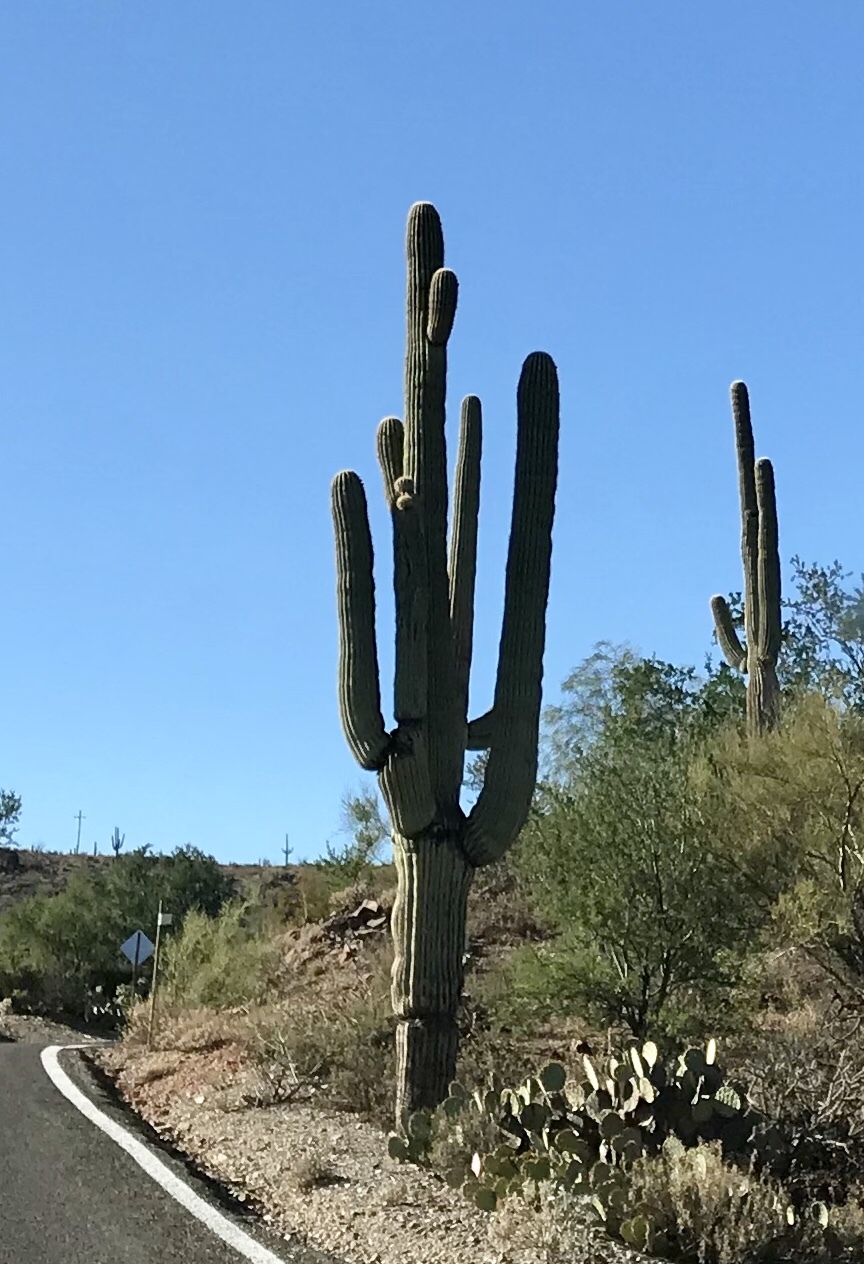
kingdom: Plantae
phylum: Tracheophyta
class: Magnoliopsida
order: Caryophyllales
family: Cactaceae
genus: Carnegiea
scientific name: Carnegiea gigantea
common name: Saguaro
